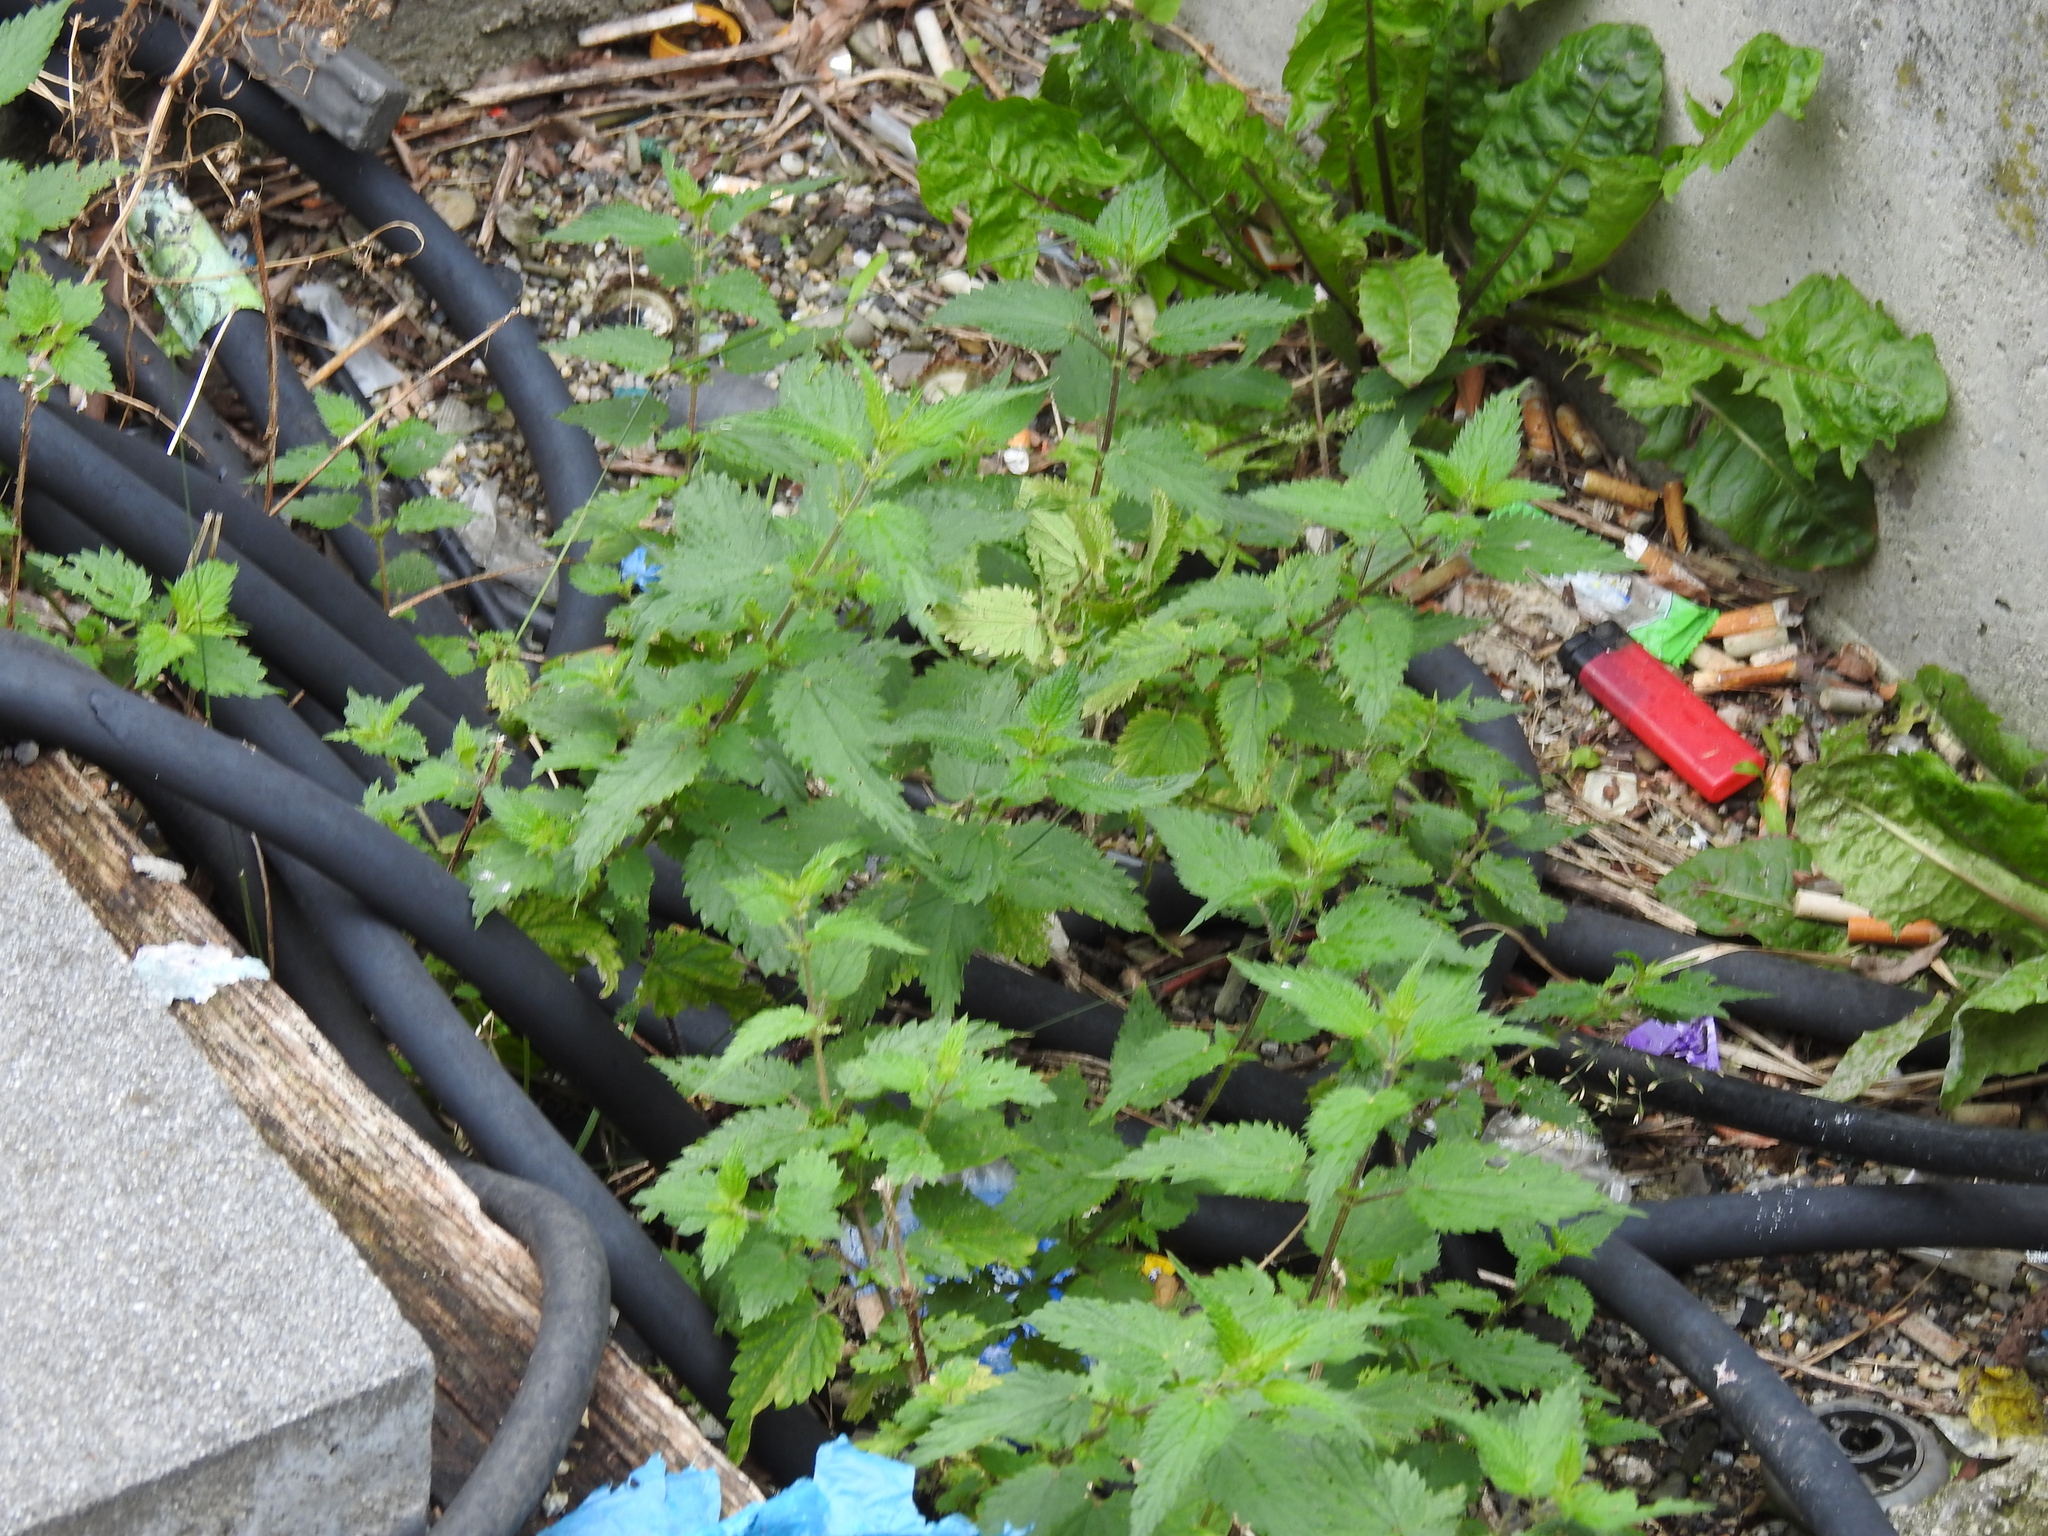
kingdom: Plantae
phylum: Tracheophyta
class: Magnoliopsida
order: Rosales
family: Urticaceae
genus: Urtica
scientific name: Urtica dioica
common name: Common nettle
